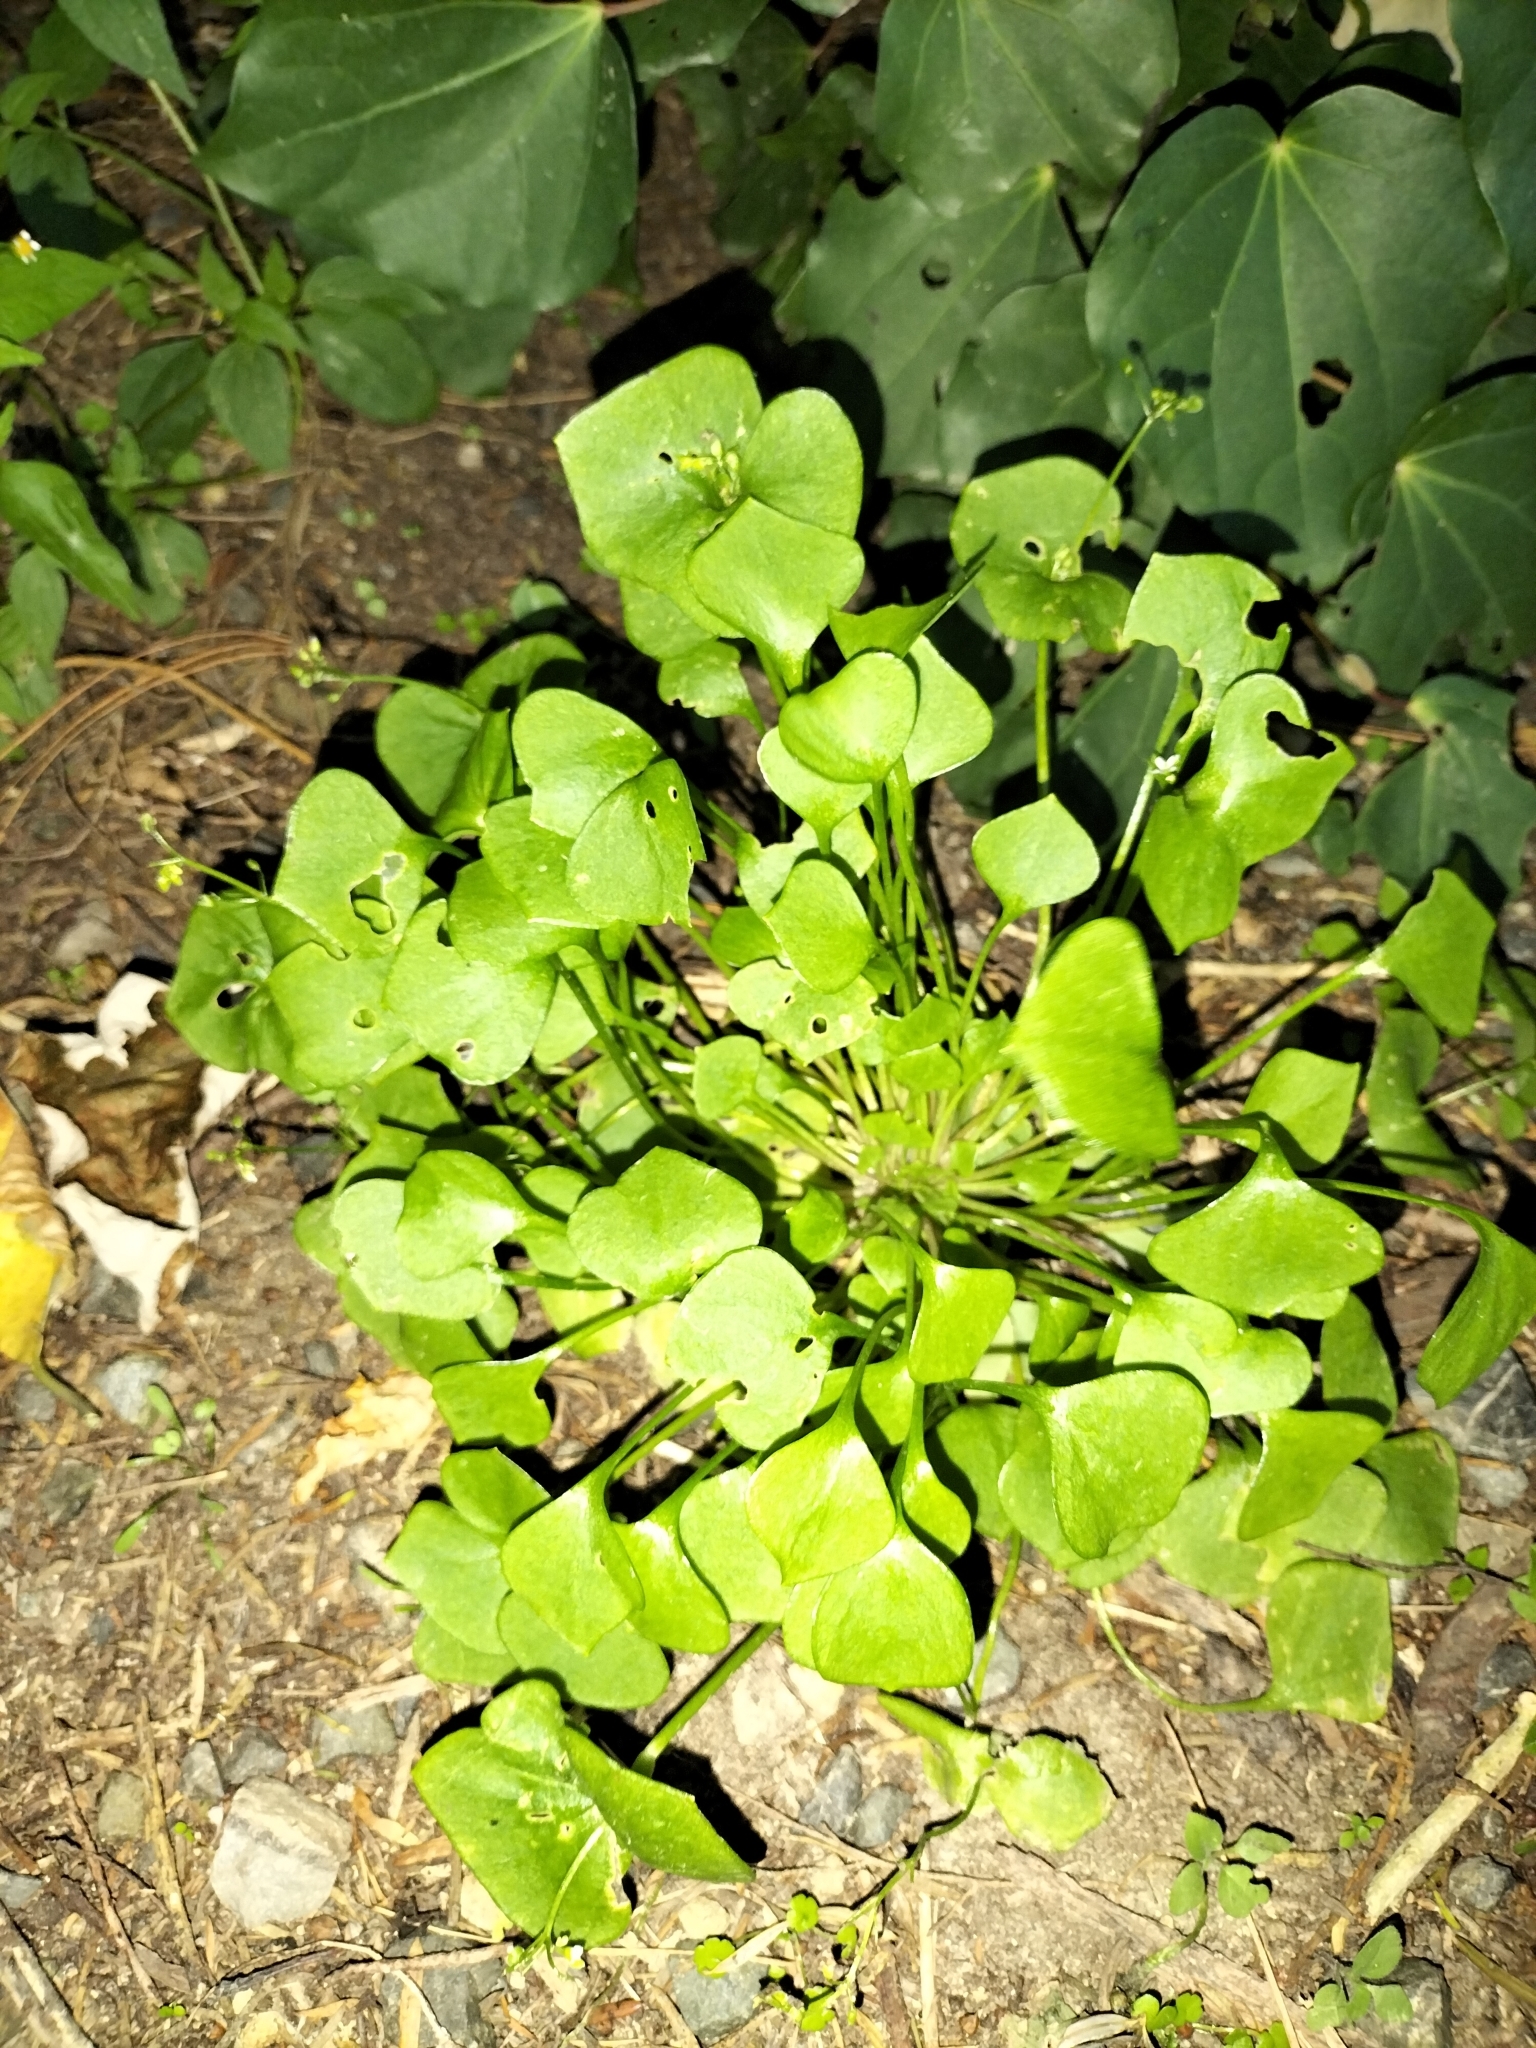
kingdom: Plantae
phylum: Tracheophyta
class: Magnoliopsida
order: Caryophyllales
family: Montiaceae
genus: Claytonia
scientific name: Claytonia perfoliata
